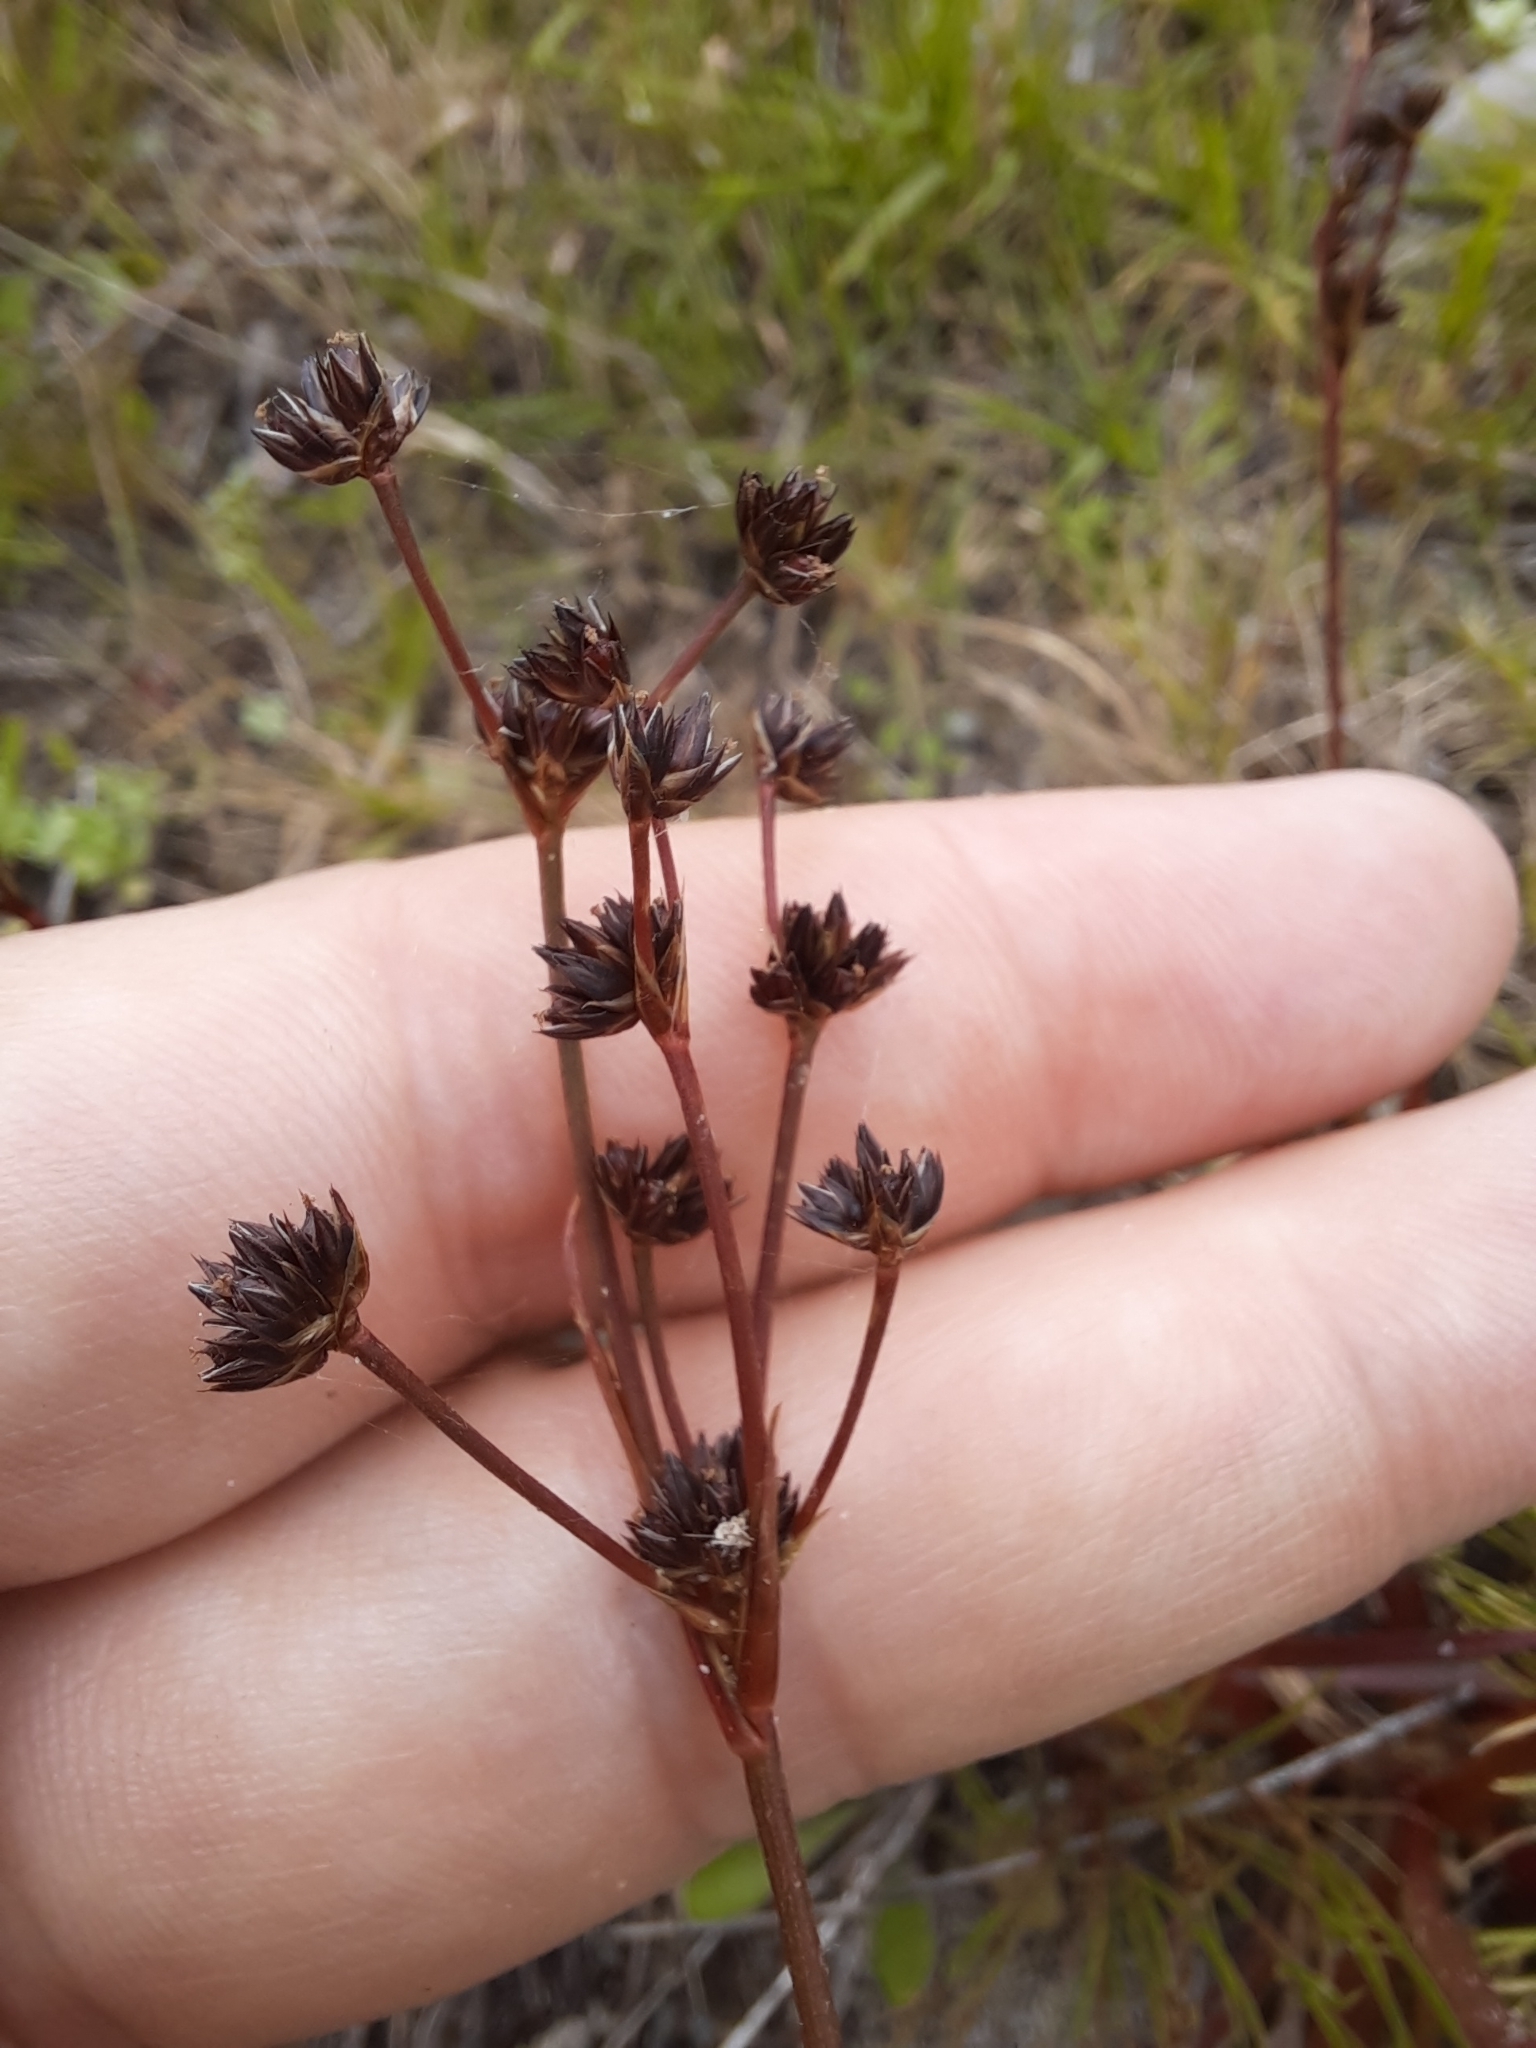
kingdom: Plantae
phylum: Tracheophyta
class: Liliopsida
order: Poales
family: Juncaceae
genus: Juncus
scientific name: Juncus planifolius
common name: Broadleaf rush
